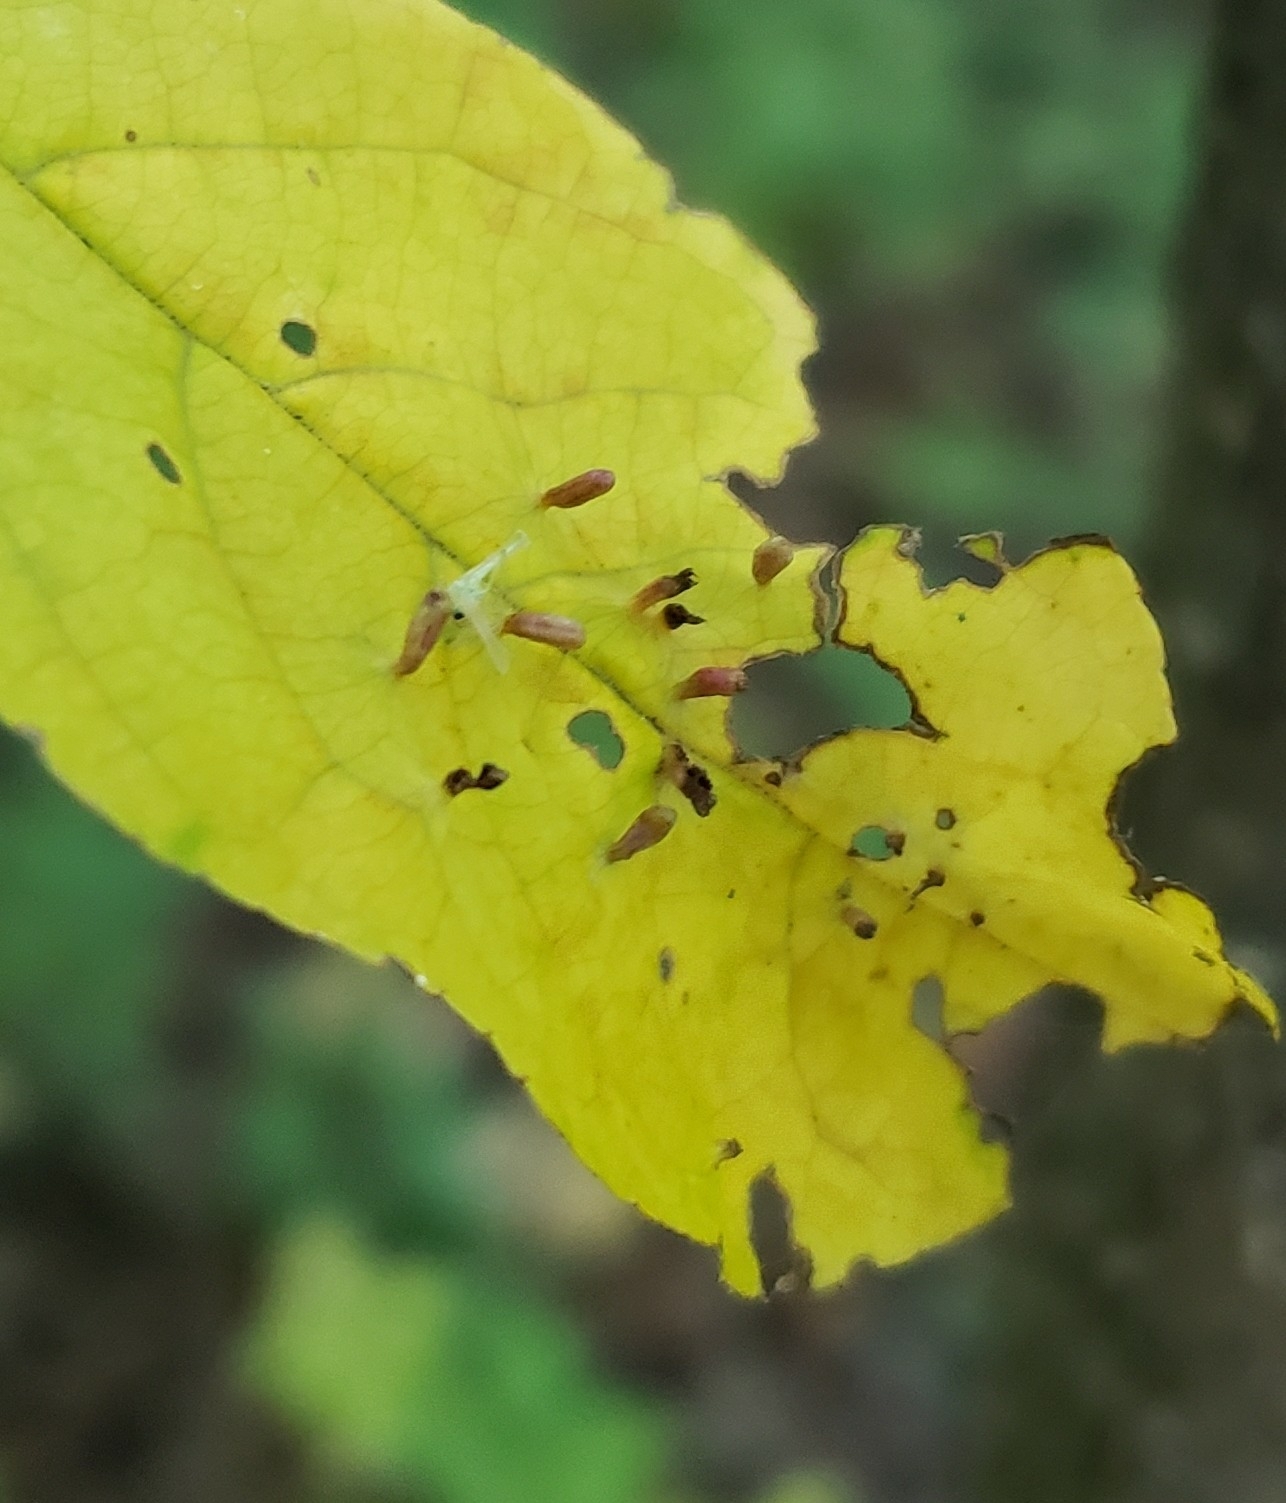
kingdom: Animalia
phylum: Arthropoda
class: Arachnida
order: Trombidiformes
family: Eriophyidae
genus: Eriophyes
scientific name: Eriophyes emarginatae
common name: Plum leaf gall mite
